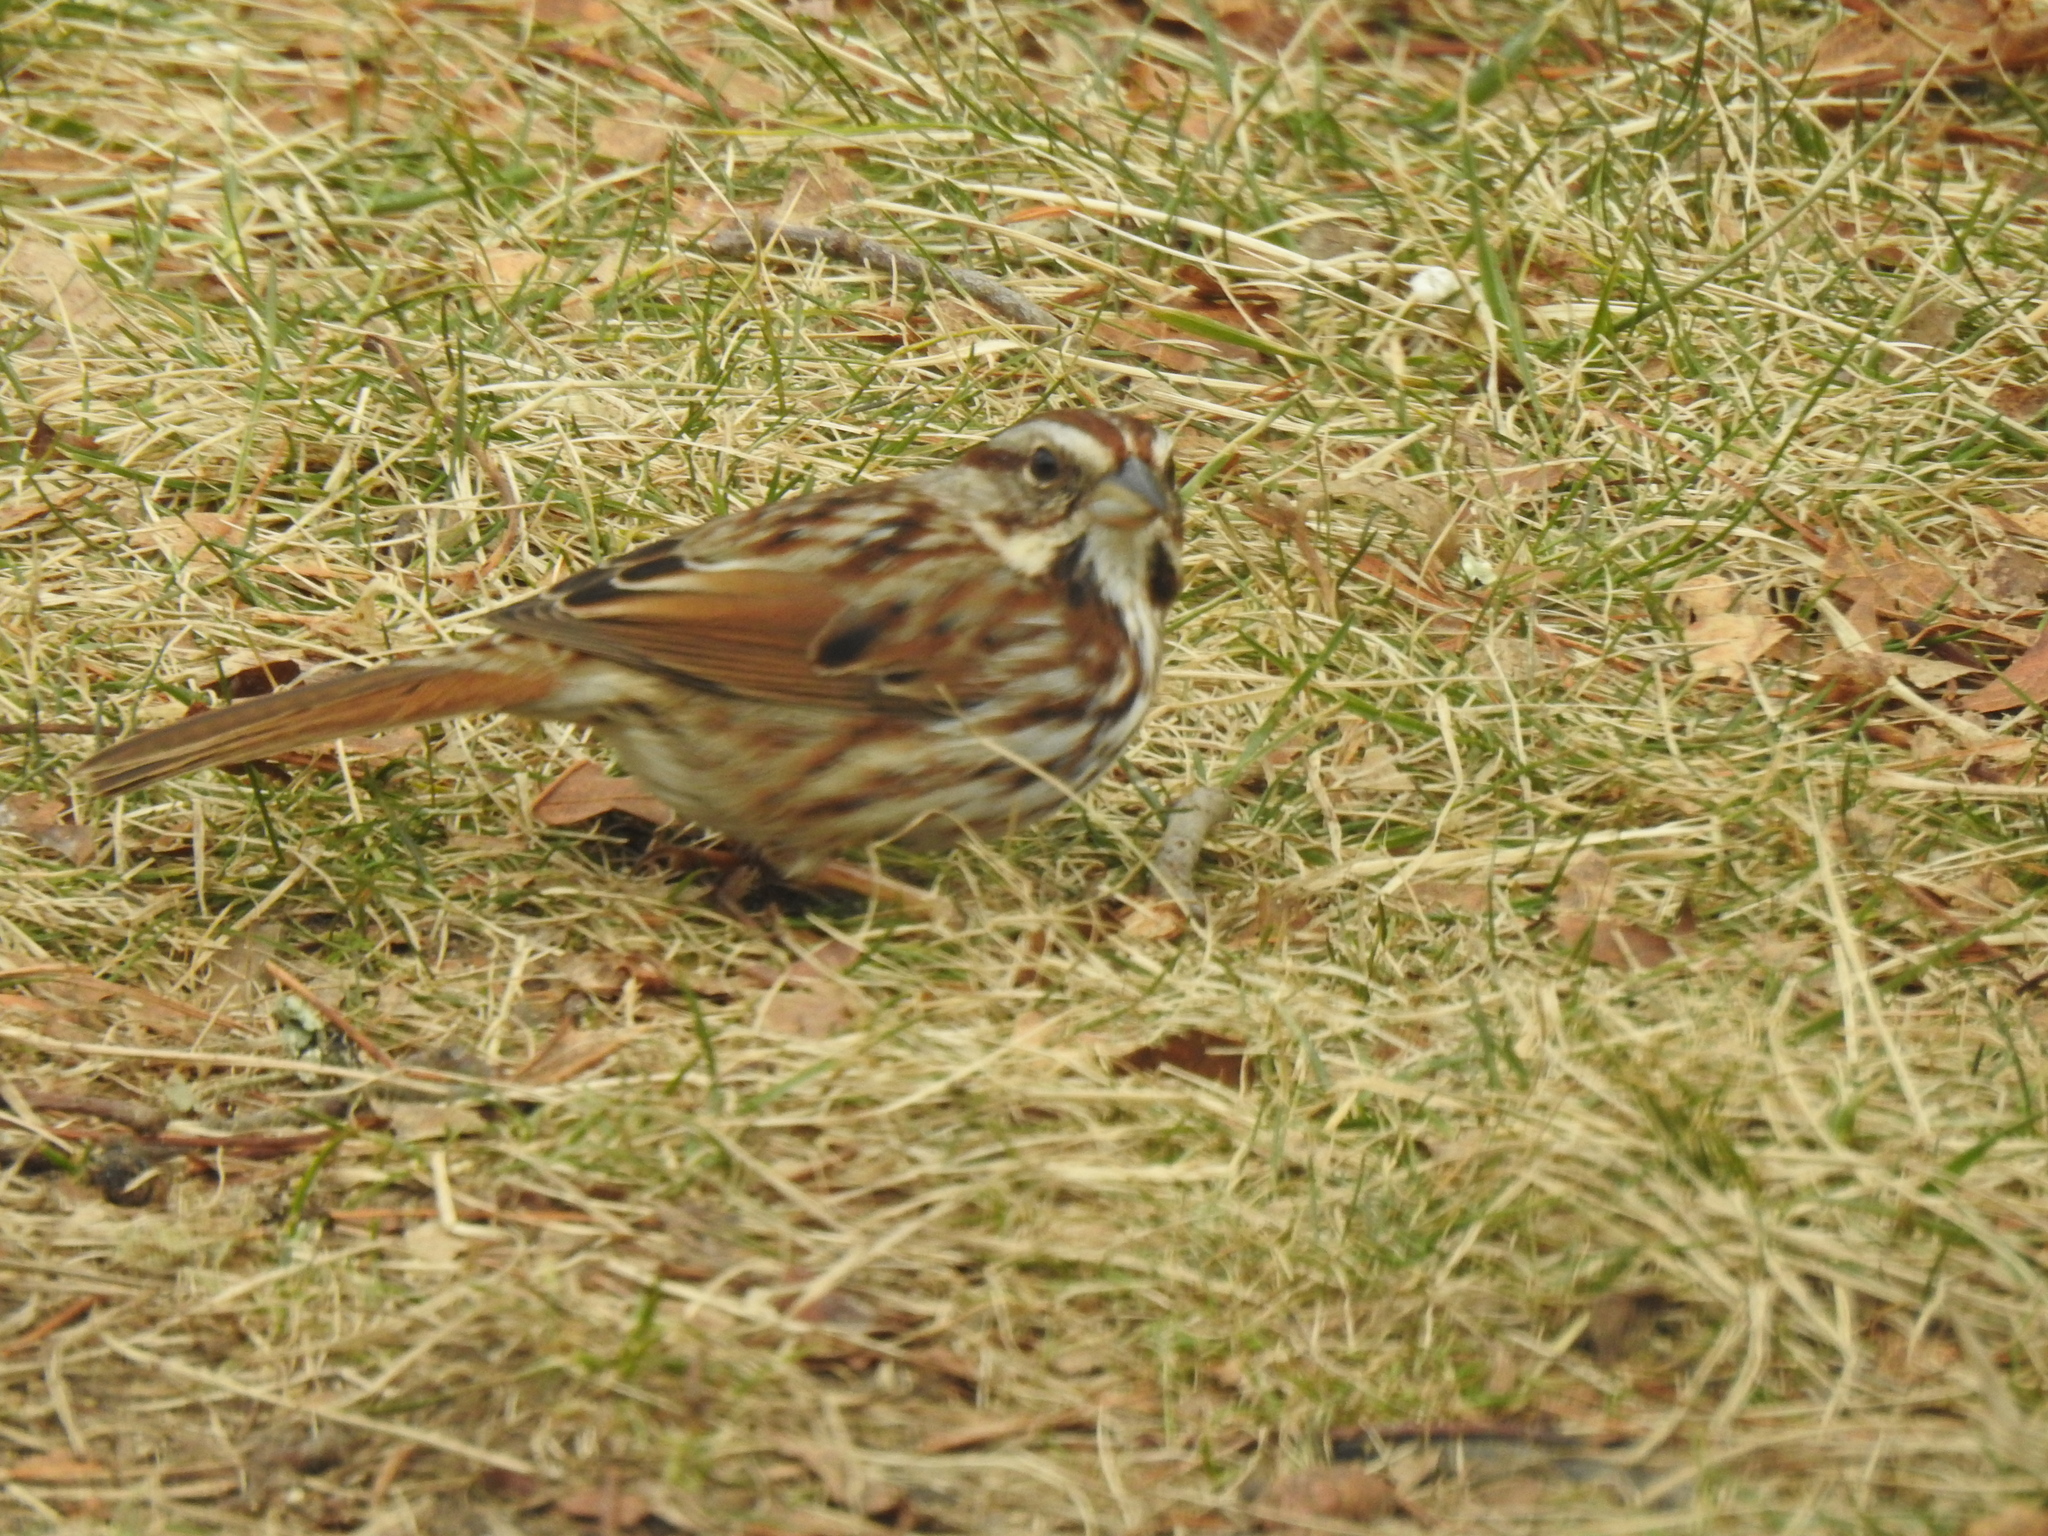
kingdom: Animalia
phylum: Chordata
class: Aves
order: Passeriformes
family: Passerellidae
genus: Melospiza
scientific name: Melospiza melodia
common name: Song sparrow
